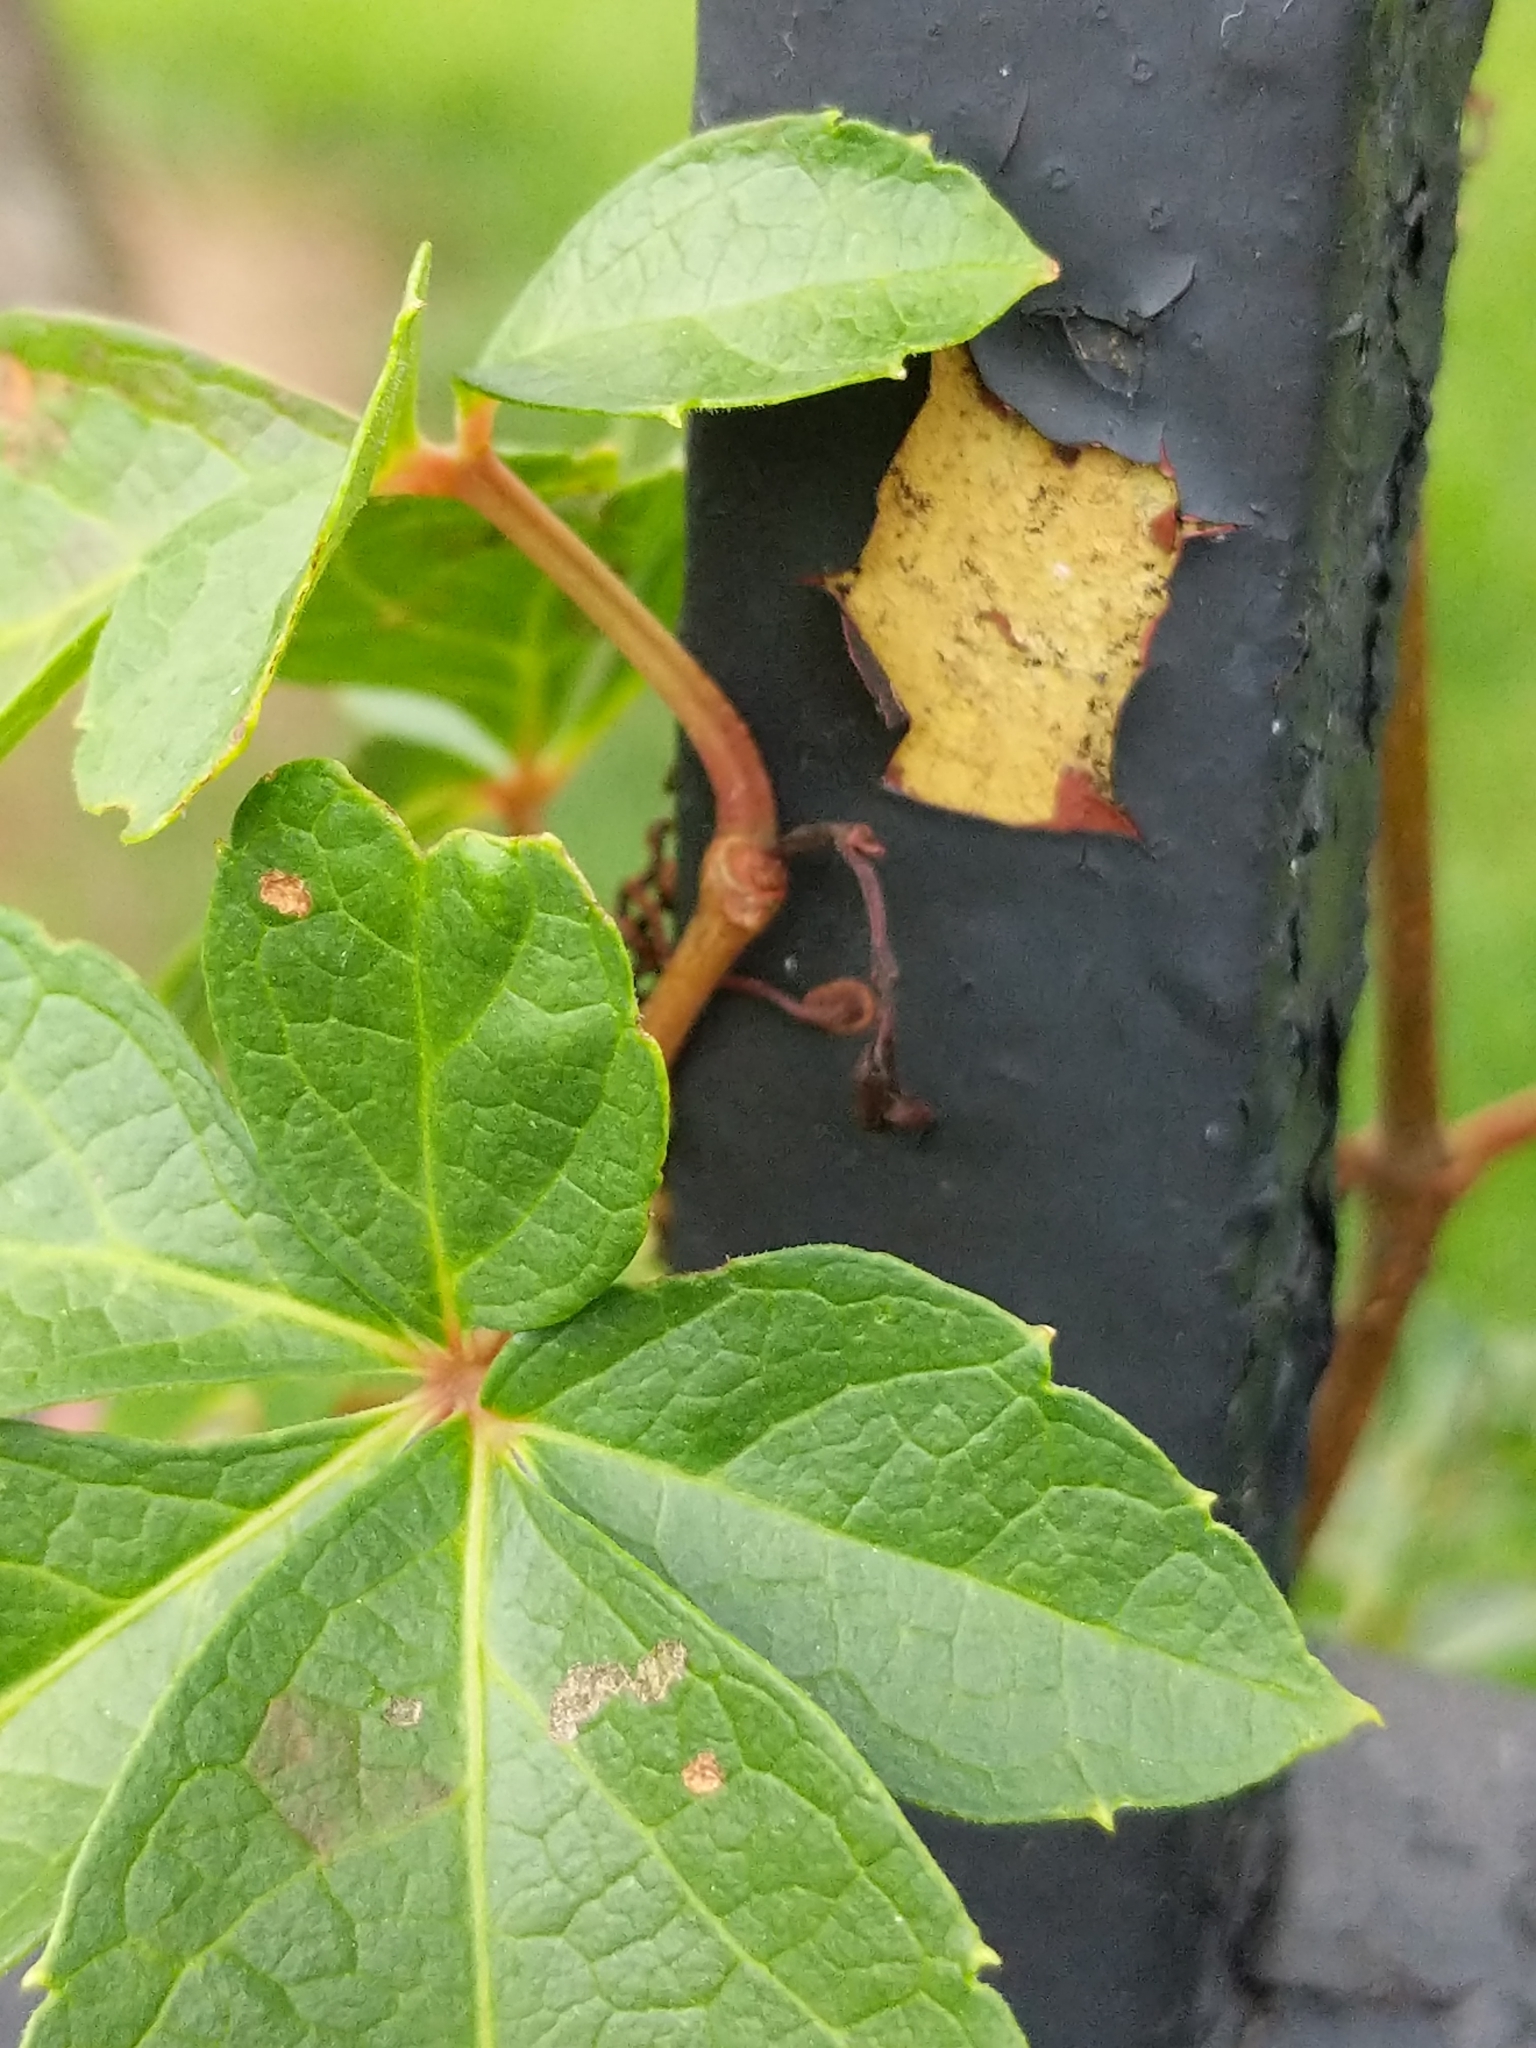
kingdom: Plantae
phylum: Tracheophyta
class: Magnoliopsida
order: Vitales
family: Vitaceae
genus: Parthenocissus
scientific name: Parthenocissus quinquefolia
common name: Virginia-creeper
